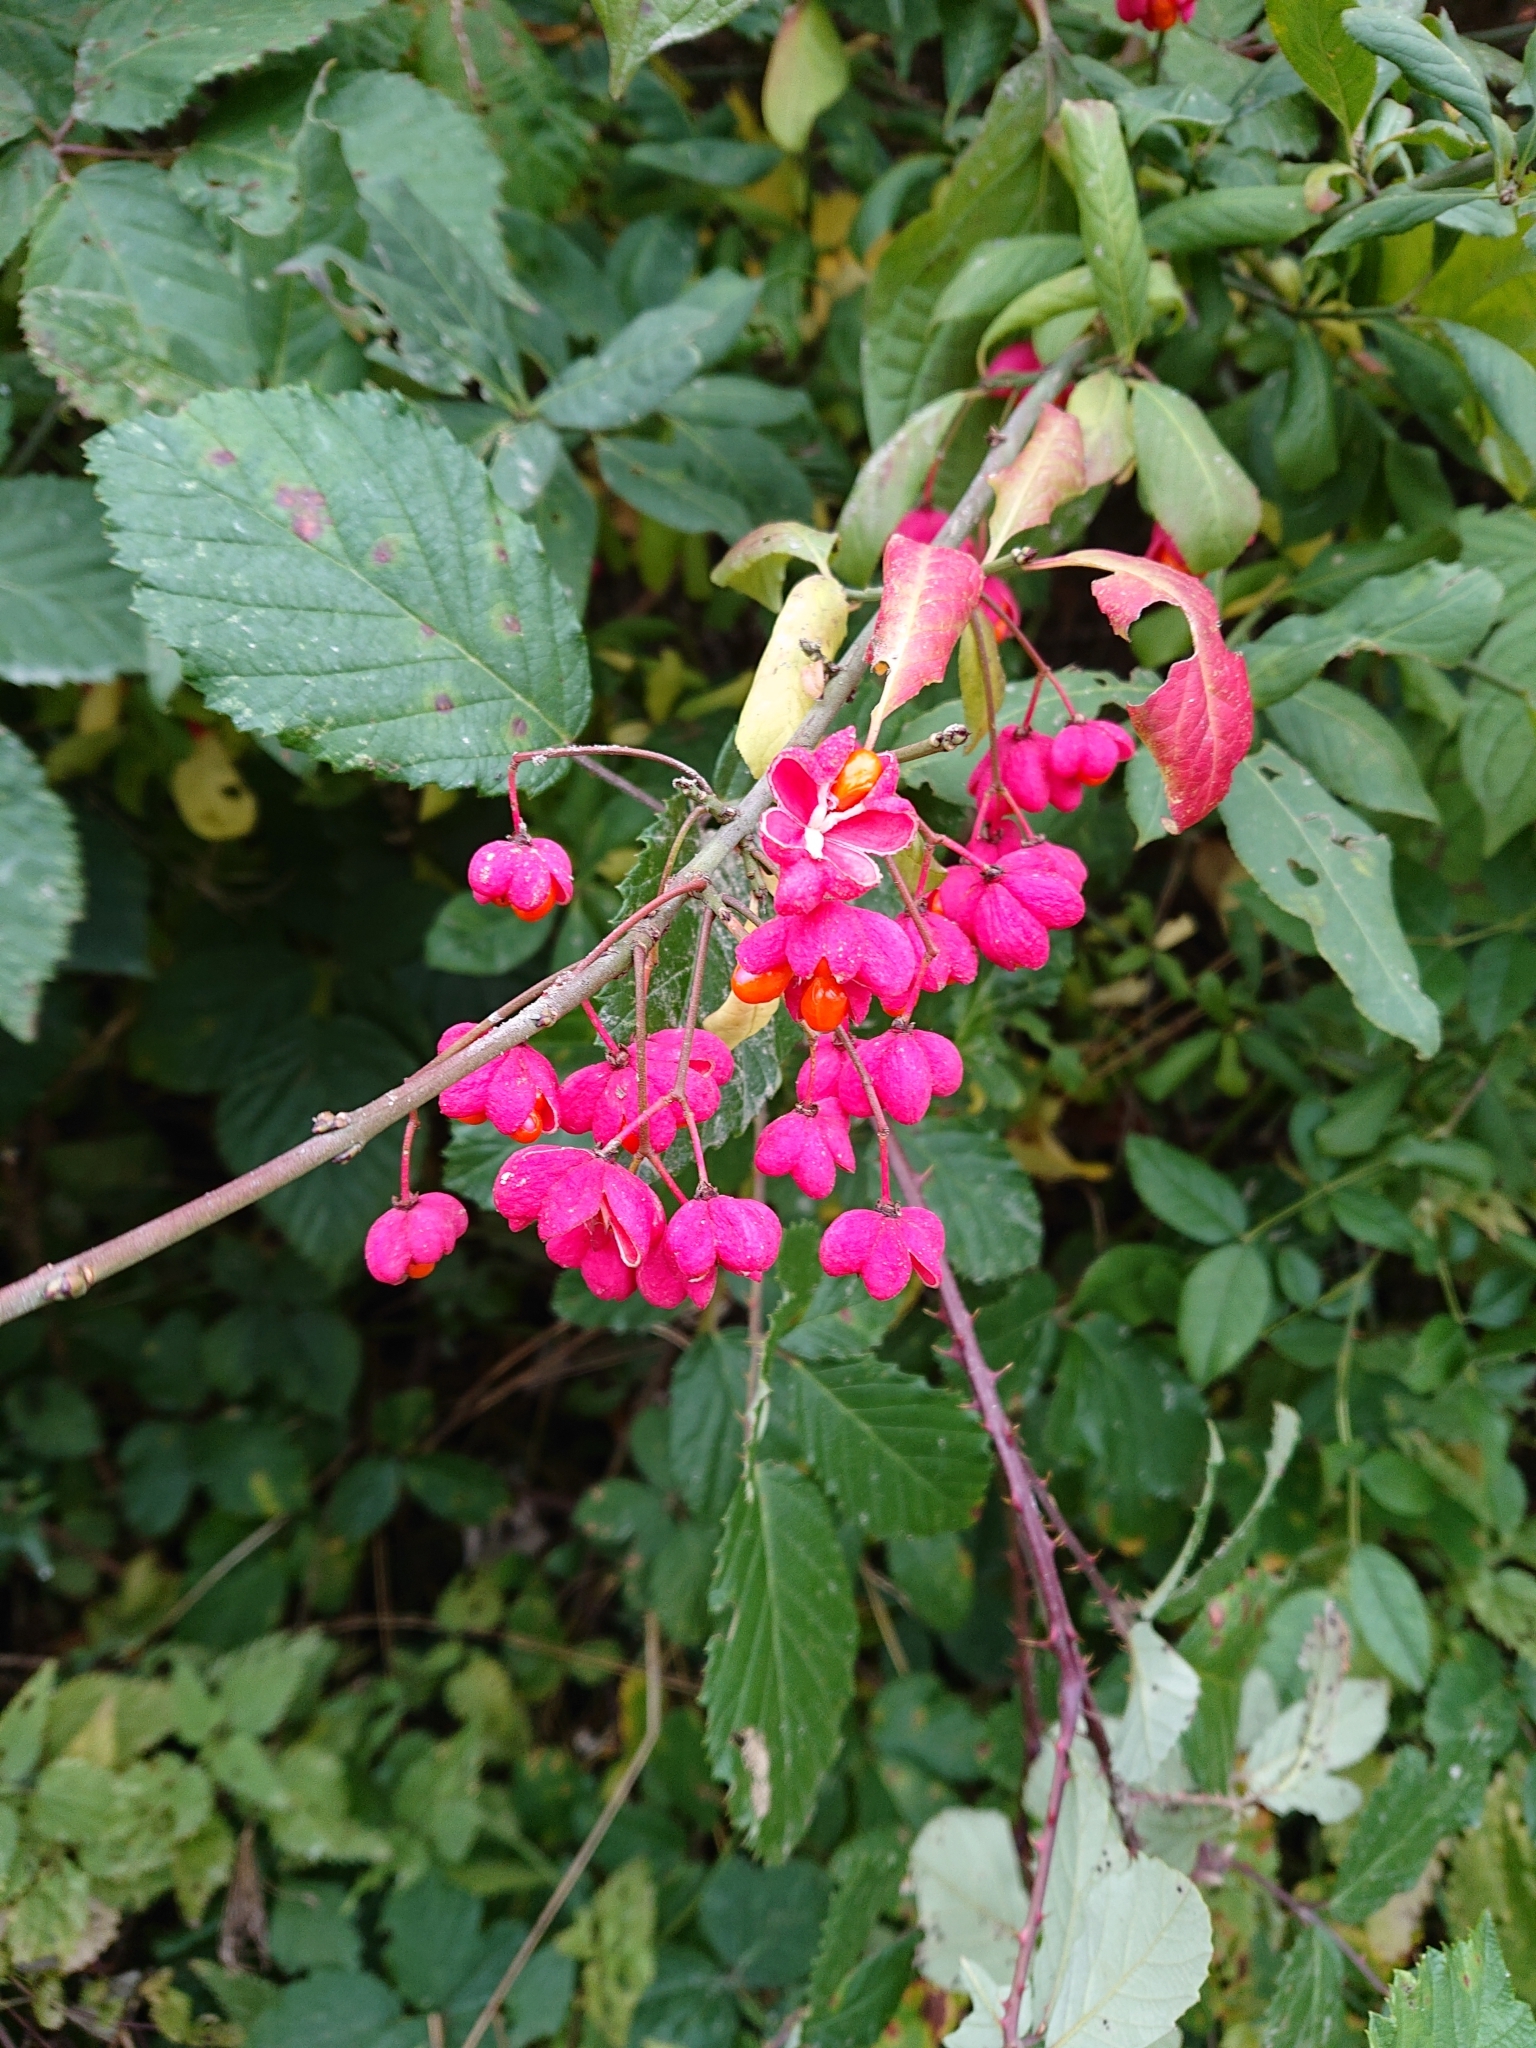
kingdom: Plantae
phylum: Tracheophyta
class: Magnoliopsida
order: Celastrales
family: Celastraceae
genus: Euonymus
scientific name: Euonymus europaeus
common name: Spindle
